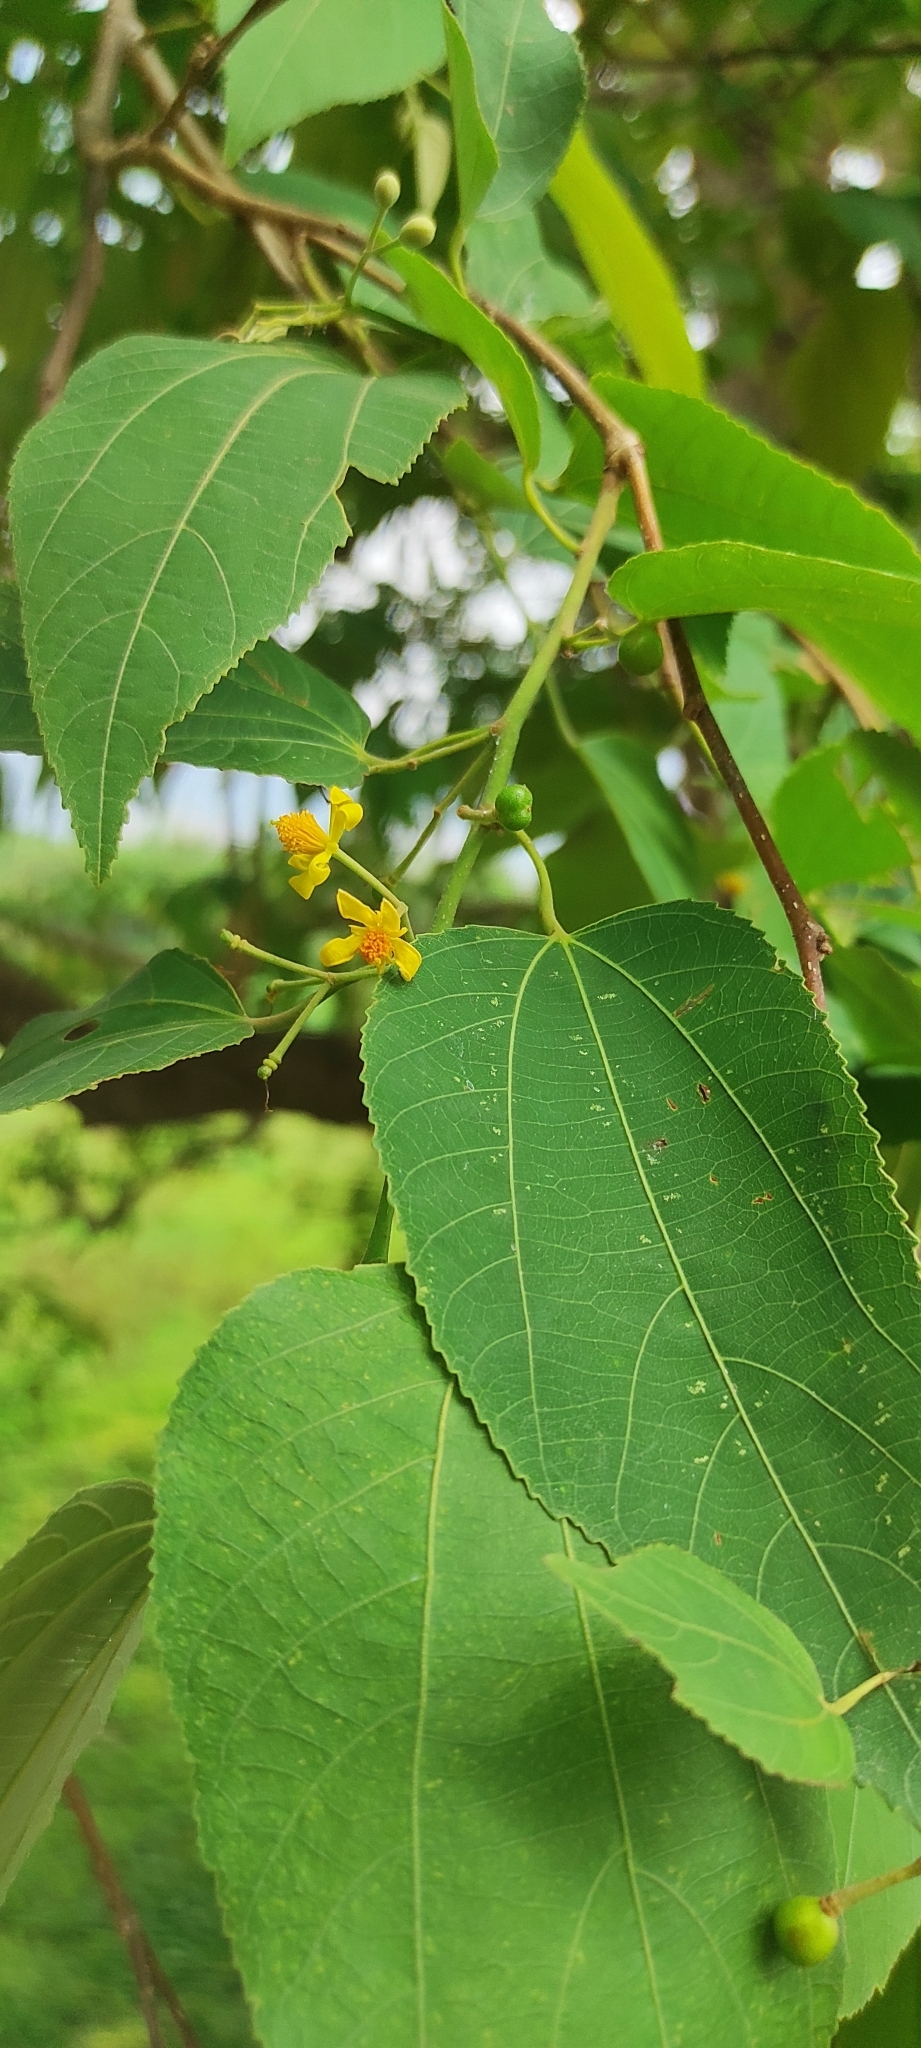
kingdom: Plantae
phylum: Tracheophyta
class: Magnoliopsida
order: Malvales
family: Malvaceae
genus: Grewia
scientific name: Grewia tiliifolia
